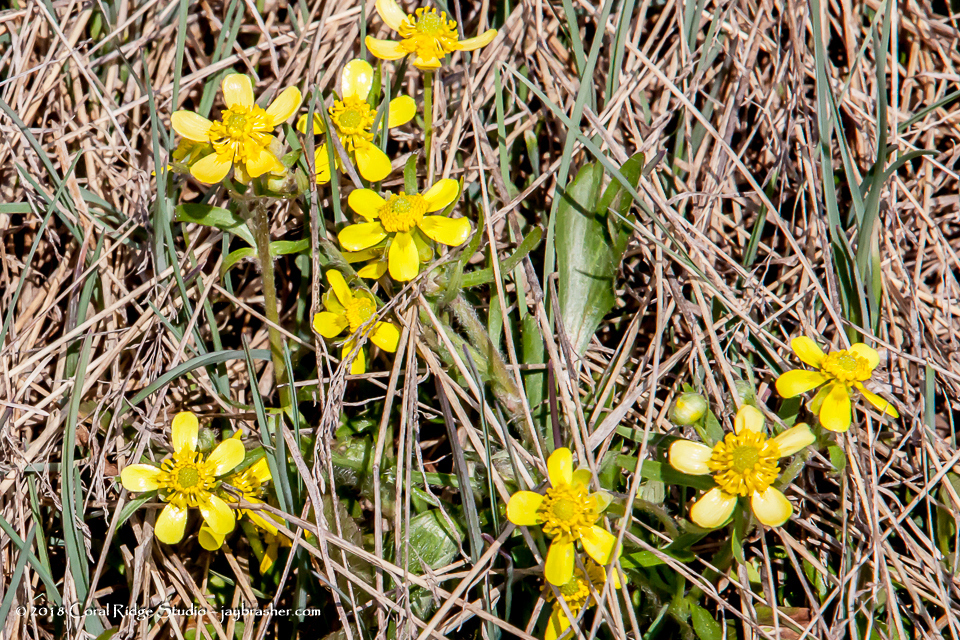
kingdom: Plantae
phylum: Tracheophyta
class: Magnoliopsida
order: Ranunculales
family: Ranunculaceae
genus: Ranunculus
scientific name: Ranunculus rhomboideus
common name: Prairie buttercup
